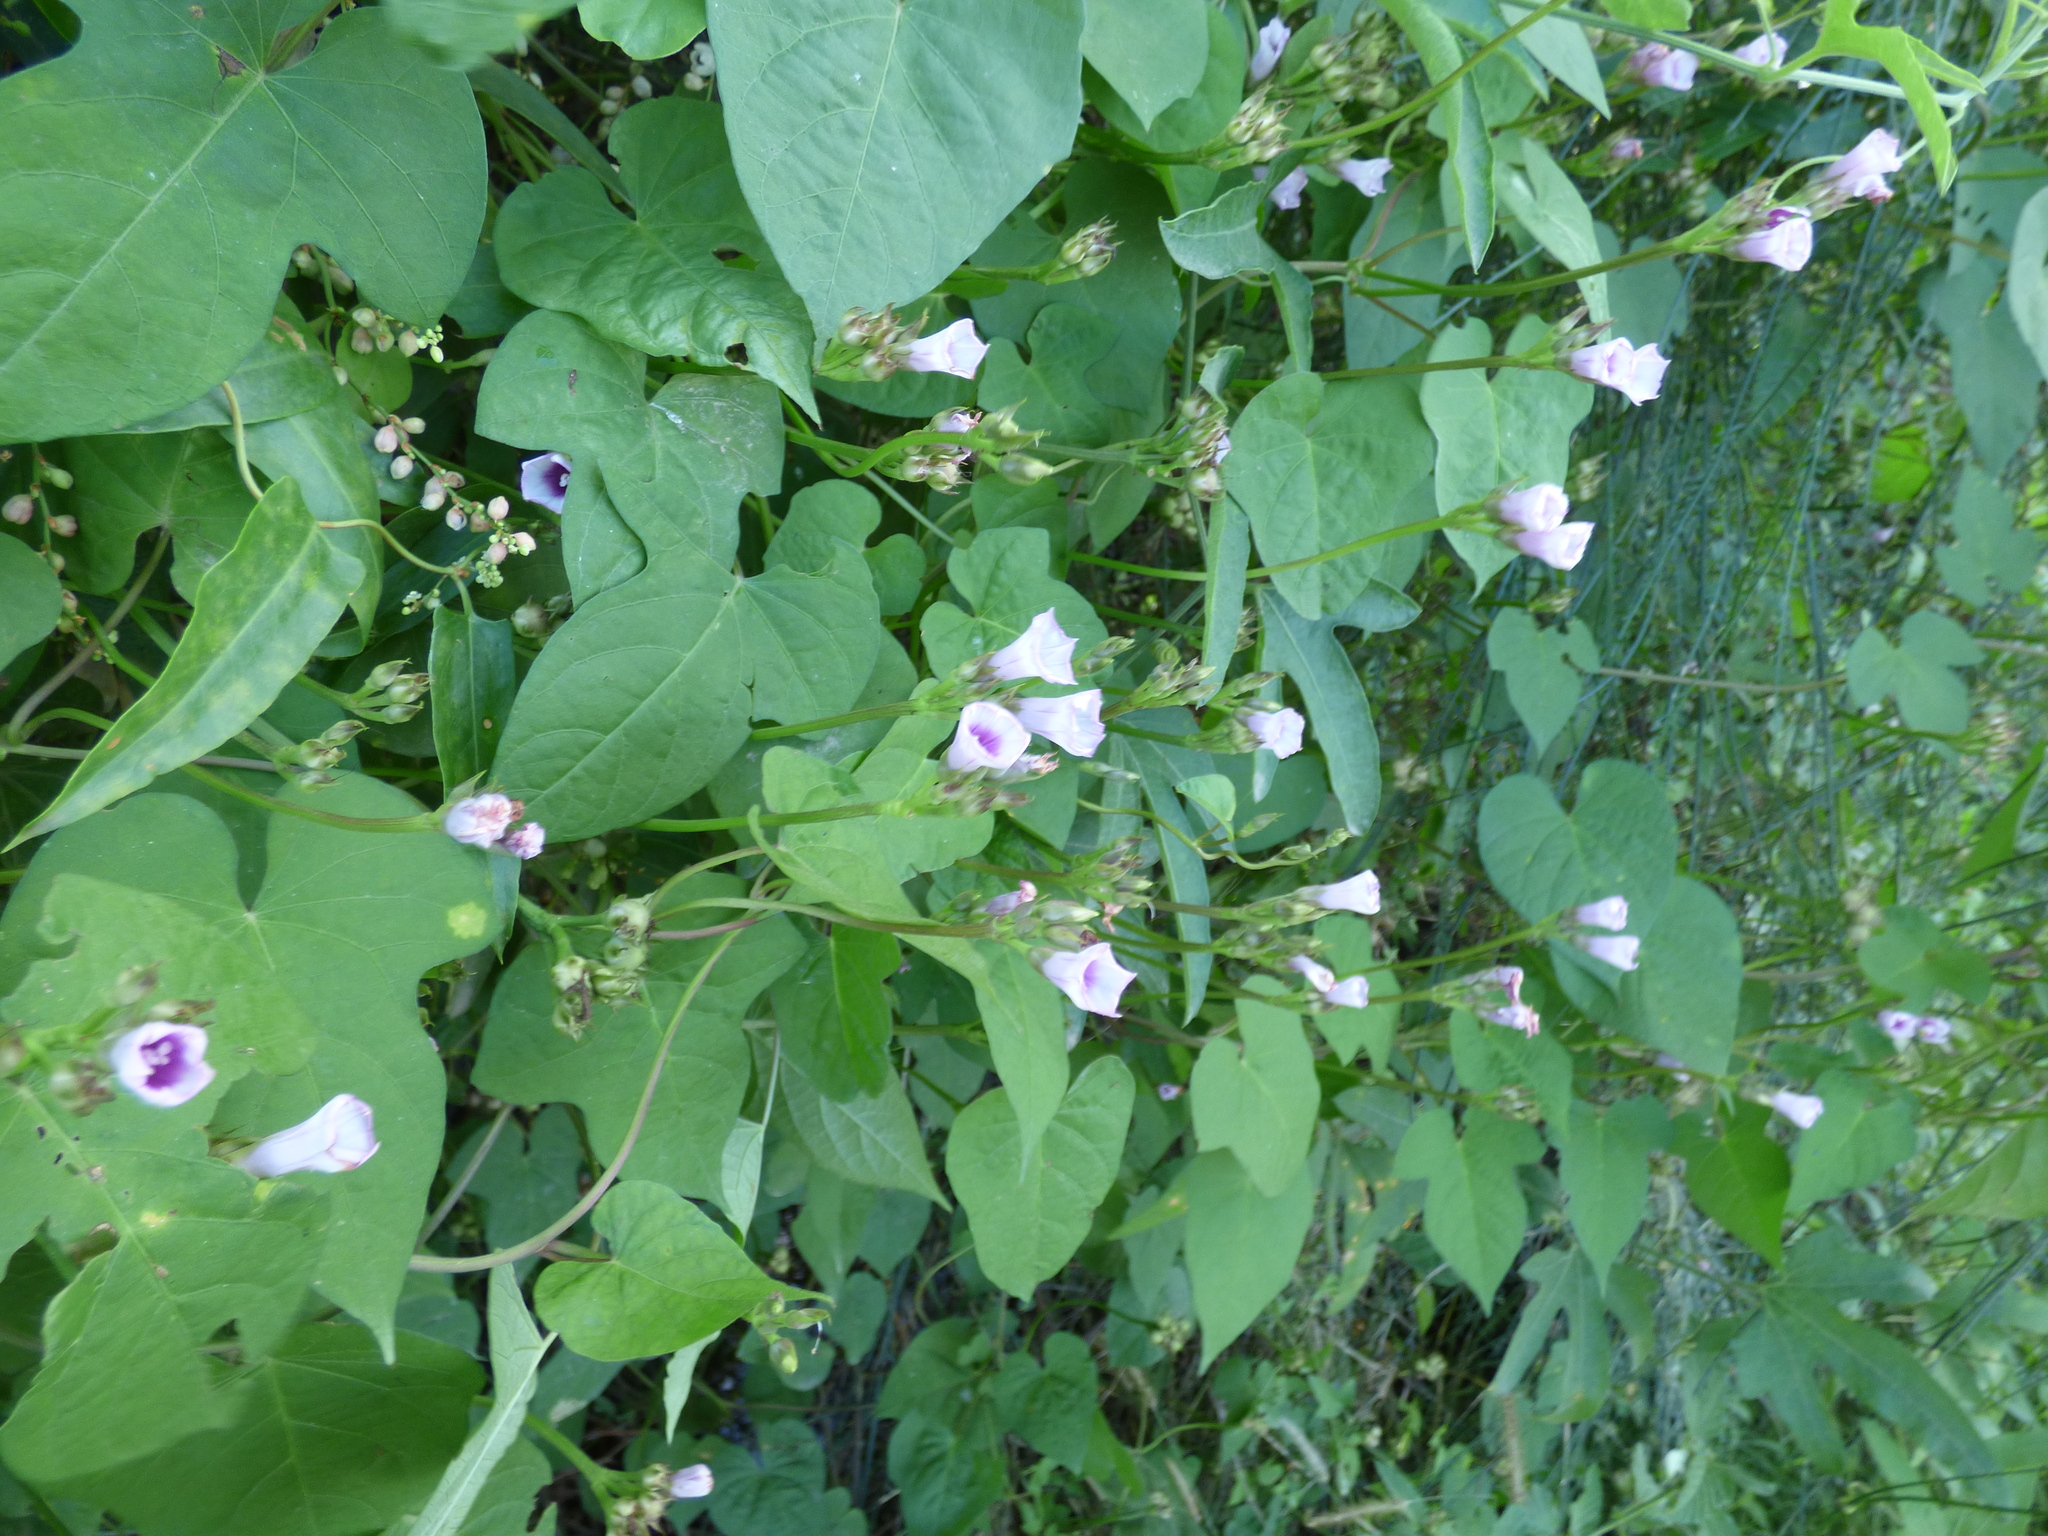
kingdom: Plantae
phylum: Tracheophyta
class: Magnoliopsida
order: Solanales
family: Convolvulaceae
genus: Ipomoea
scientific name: Ipomoea grandifolia
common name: Aiea morning glory
